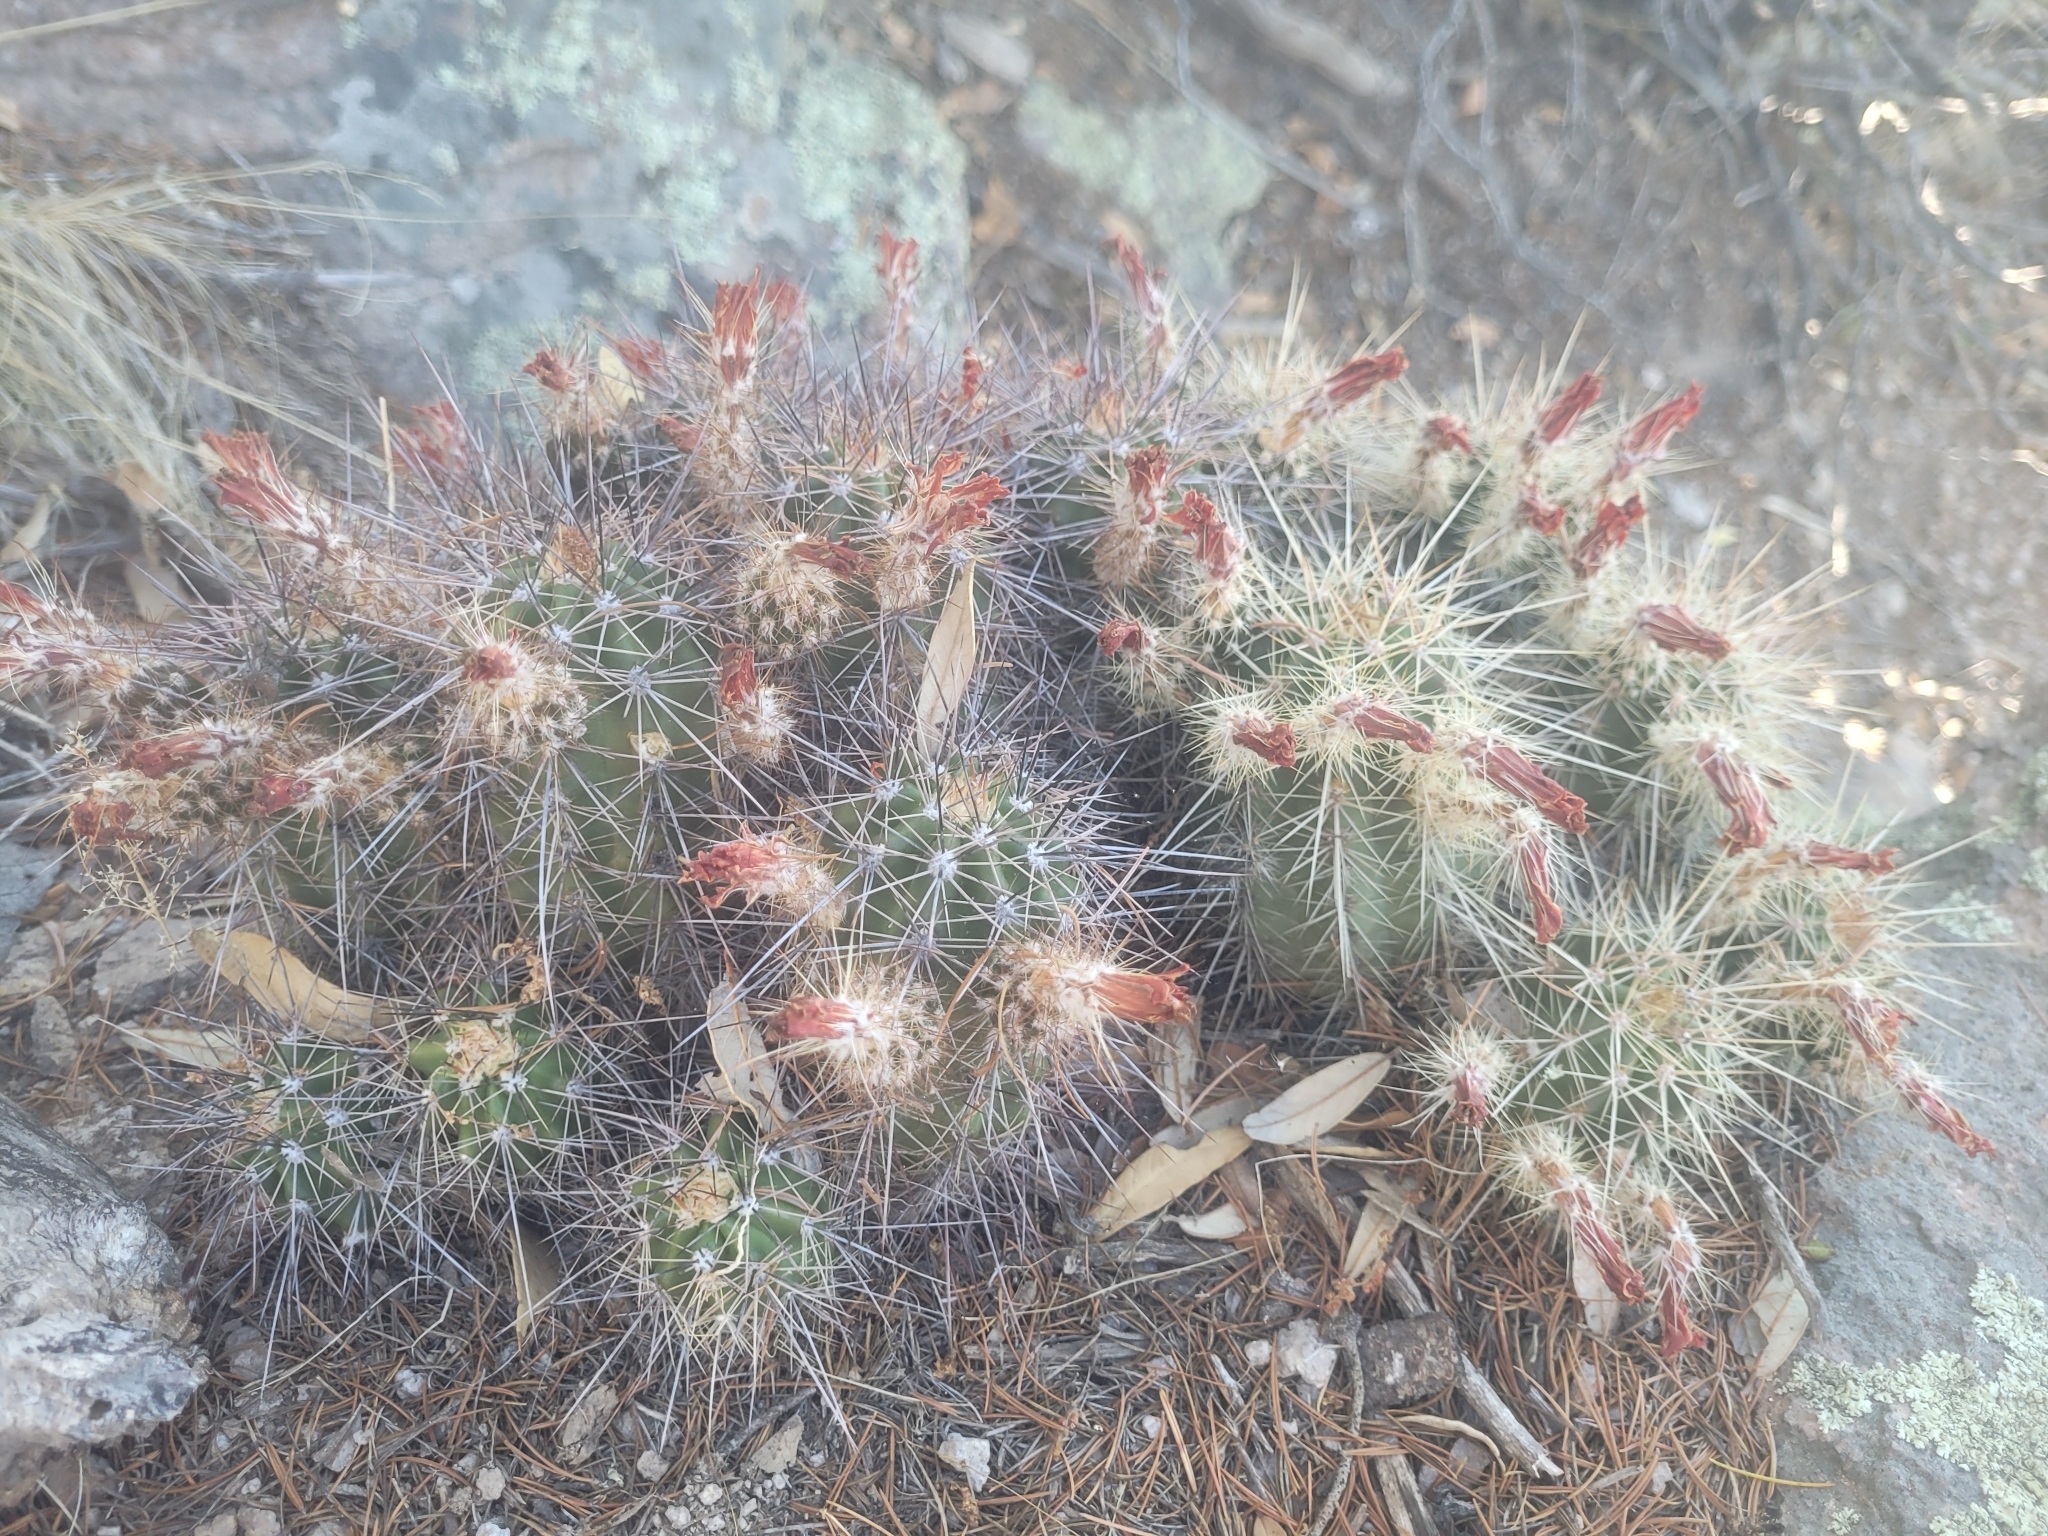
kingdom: Plantae
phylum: Tracheophyta
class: Magnoliopsida
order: Caryophyllales
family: Cactaceae
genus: Echinocereus
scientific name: Echinocereus coccineus
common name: Scarlet hedgehog cactus
